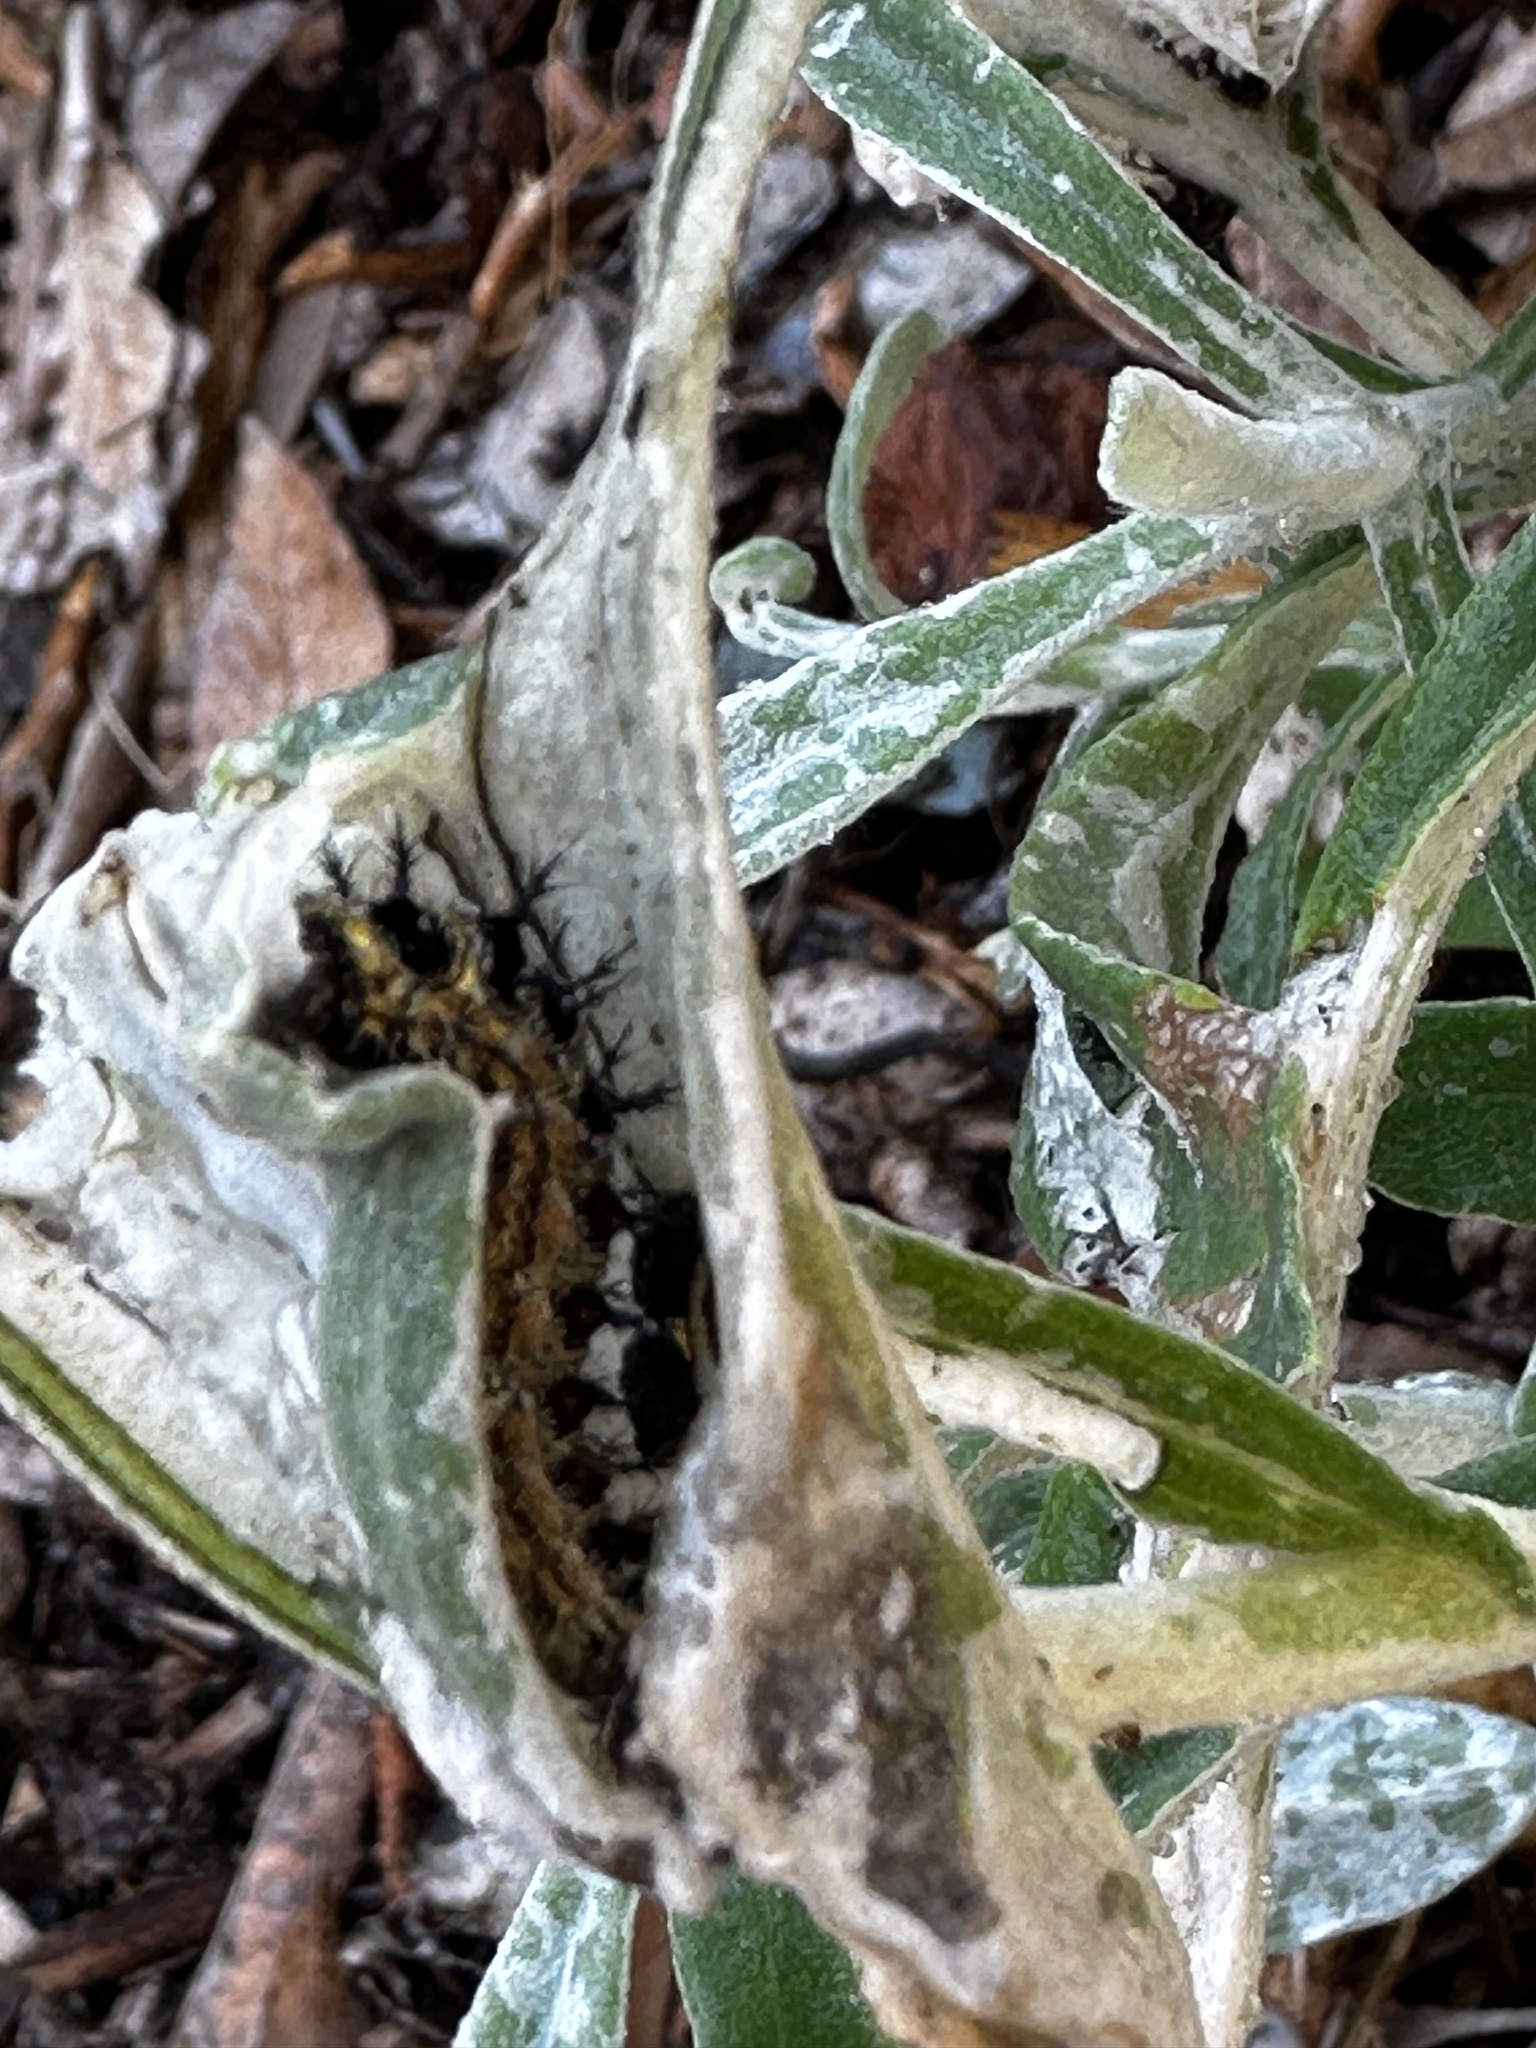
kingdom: Animalia
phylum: Arthropoda
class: Insecta
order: Lepidoptera
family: Nymphalidae
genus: Vanessa
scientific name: Vanessa virginiensis
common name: American lady
